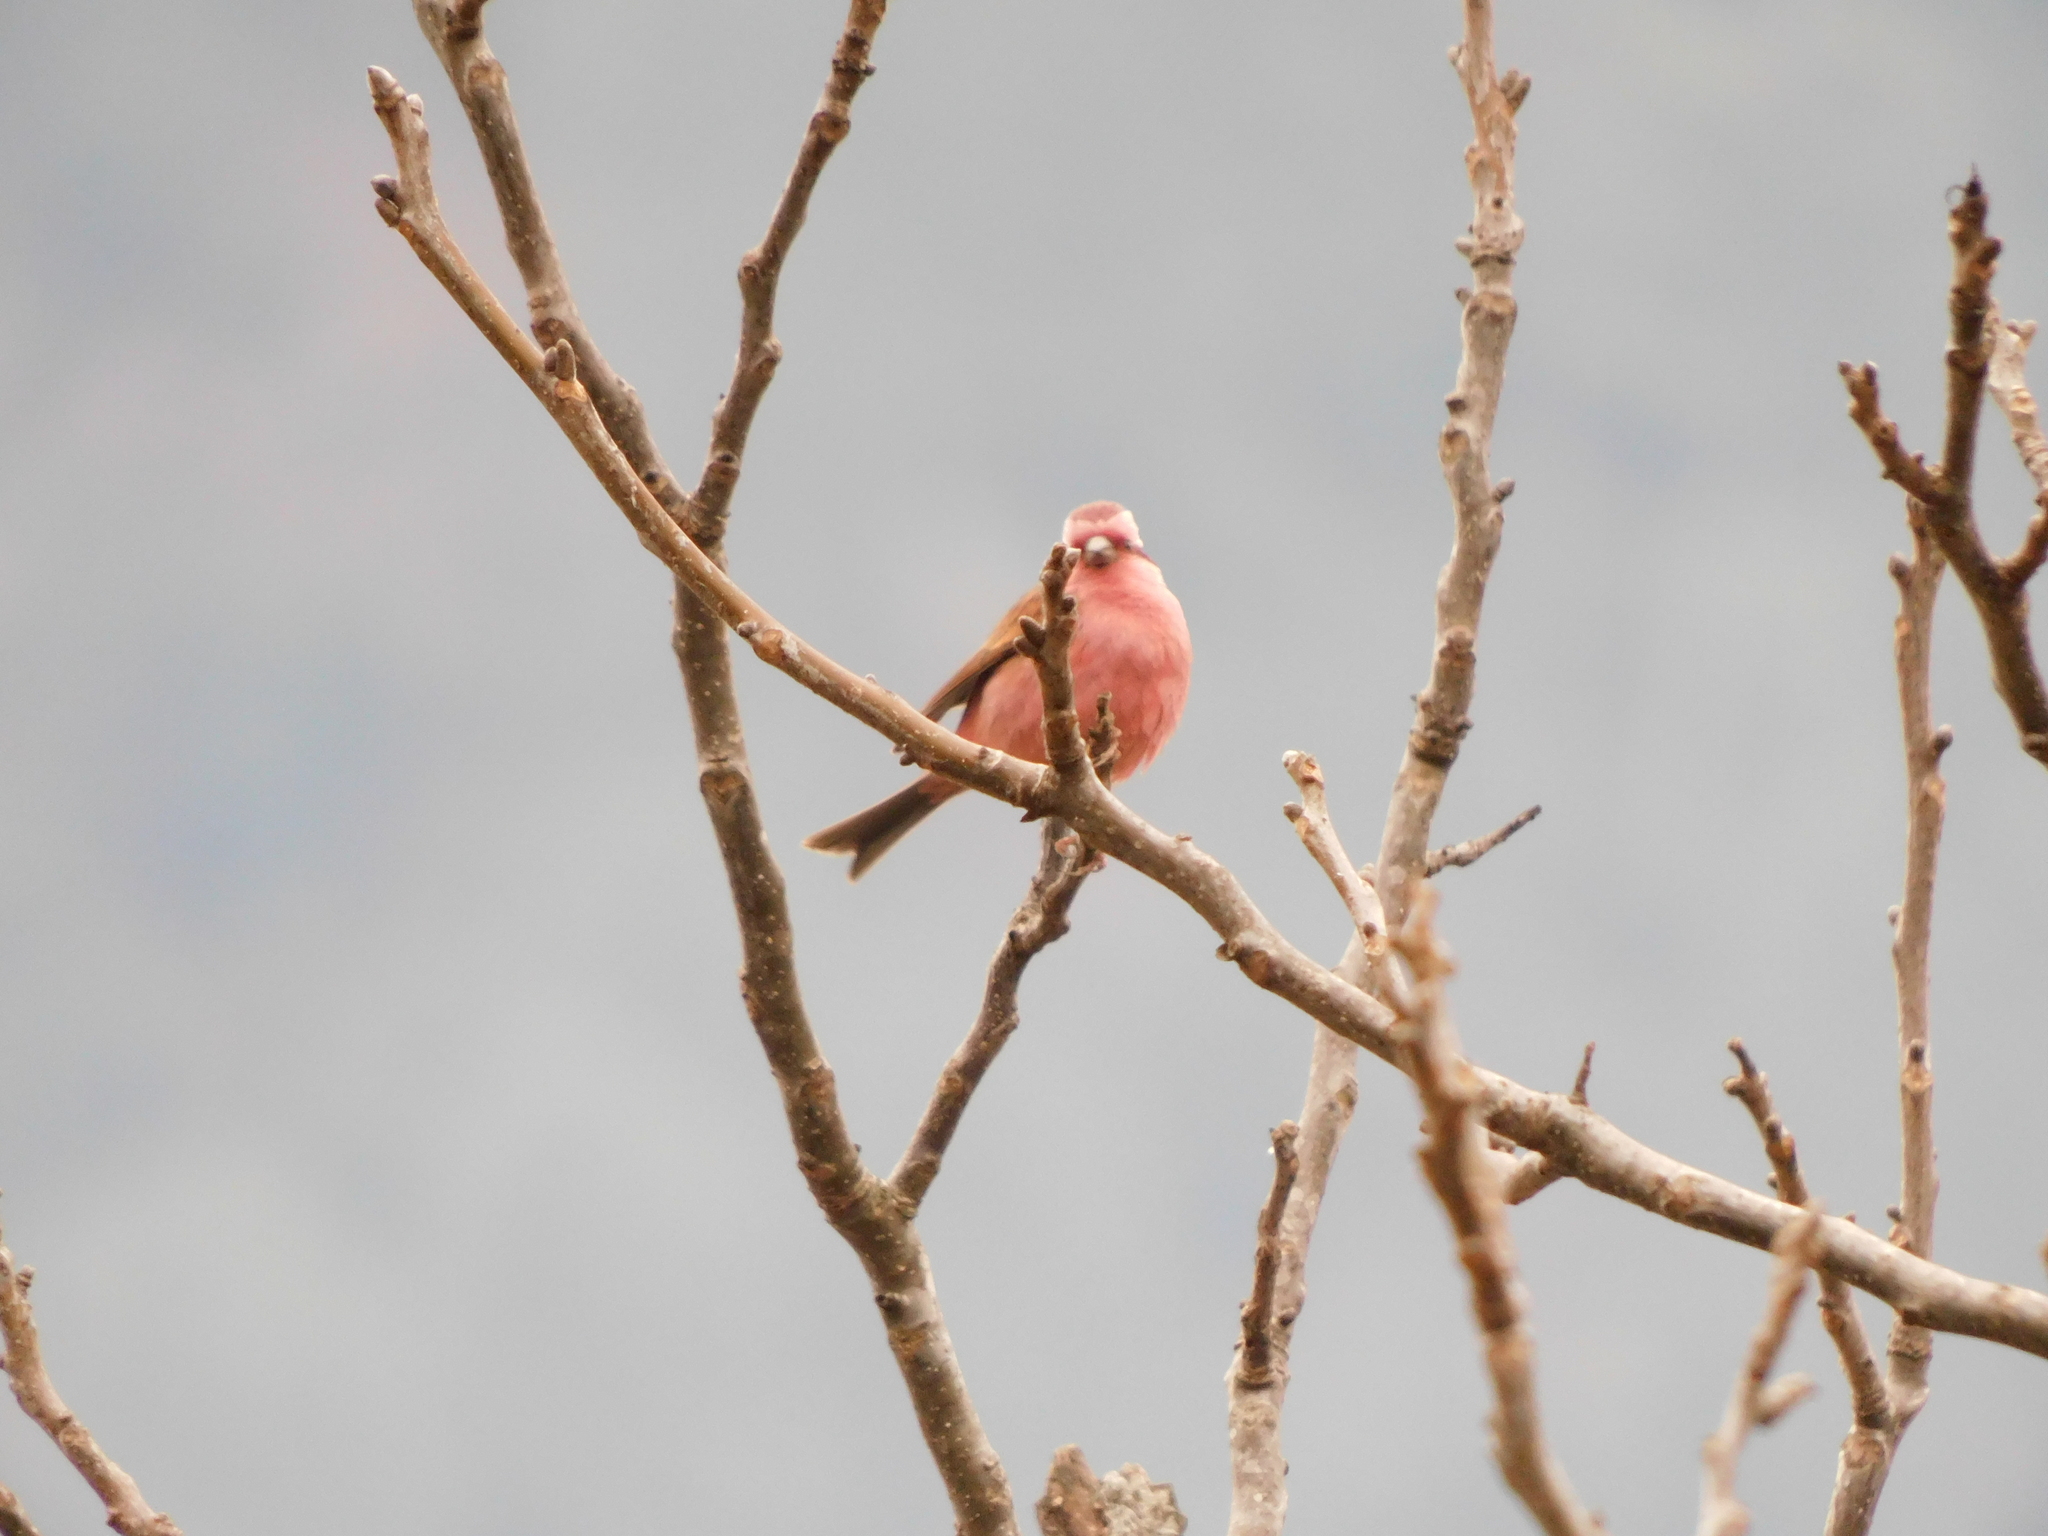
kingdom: Animalia
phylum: Chordata
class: Aves
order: Passeriformes
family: Fringillidae
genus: Carpodacus
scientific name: Carpodacus rodochroa
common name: Pink-browed rosefinch
